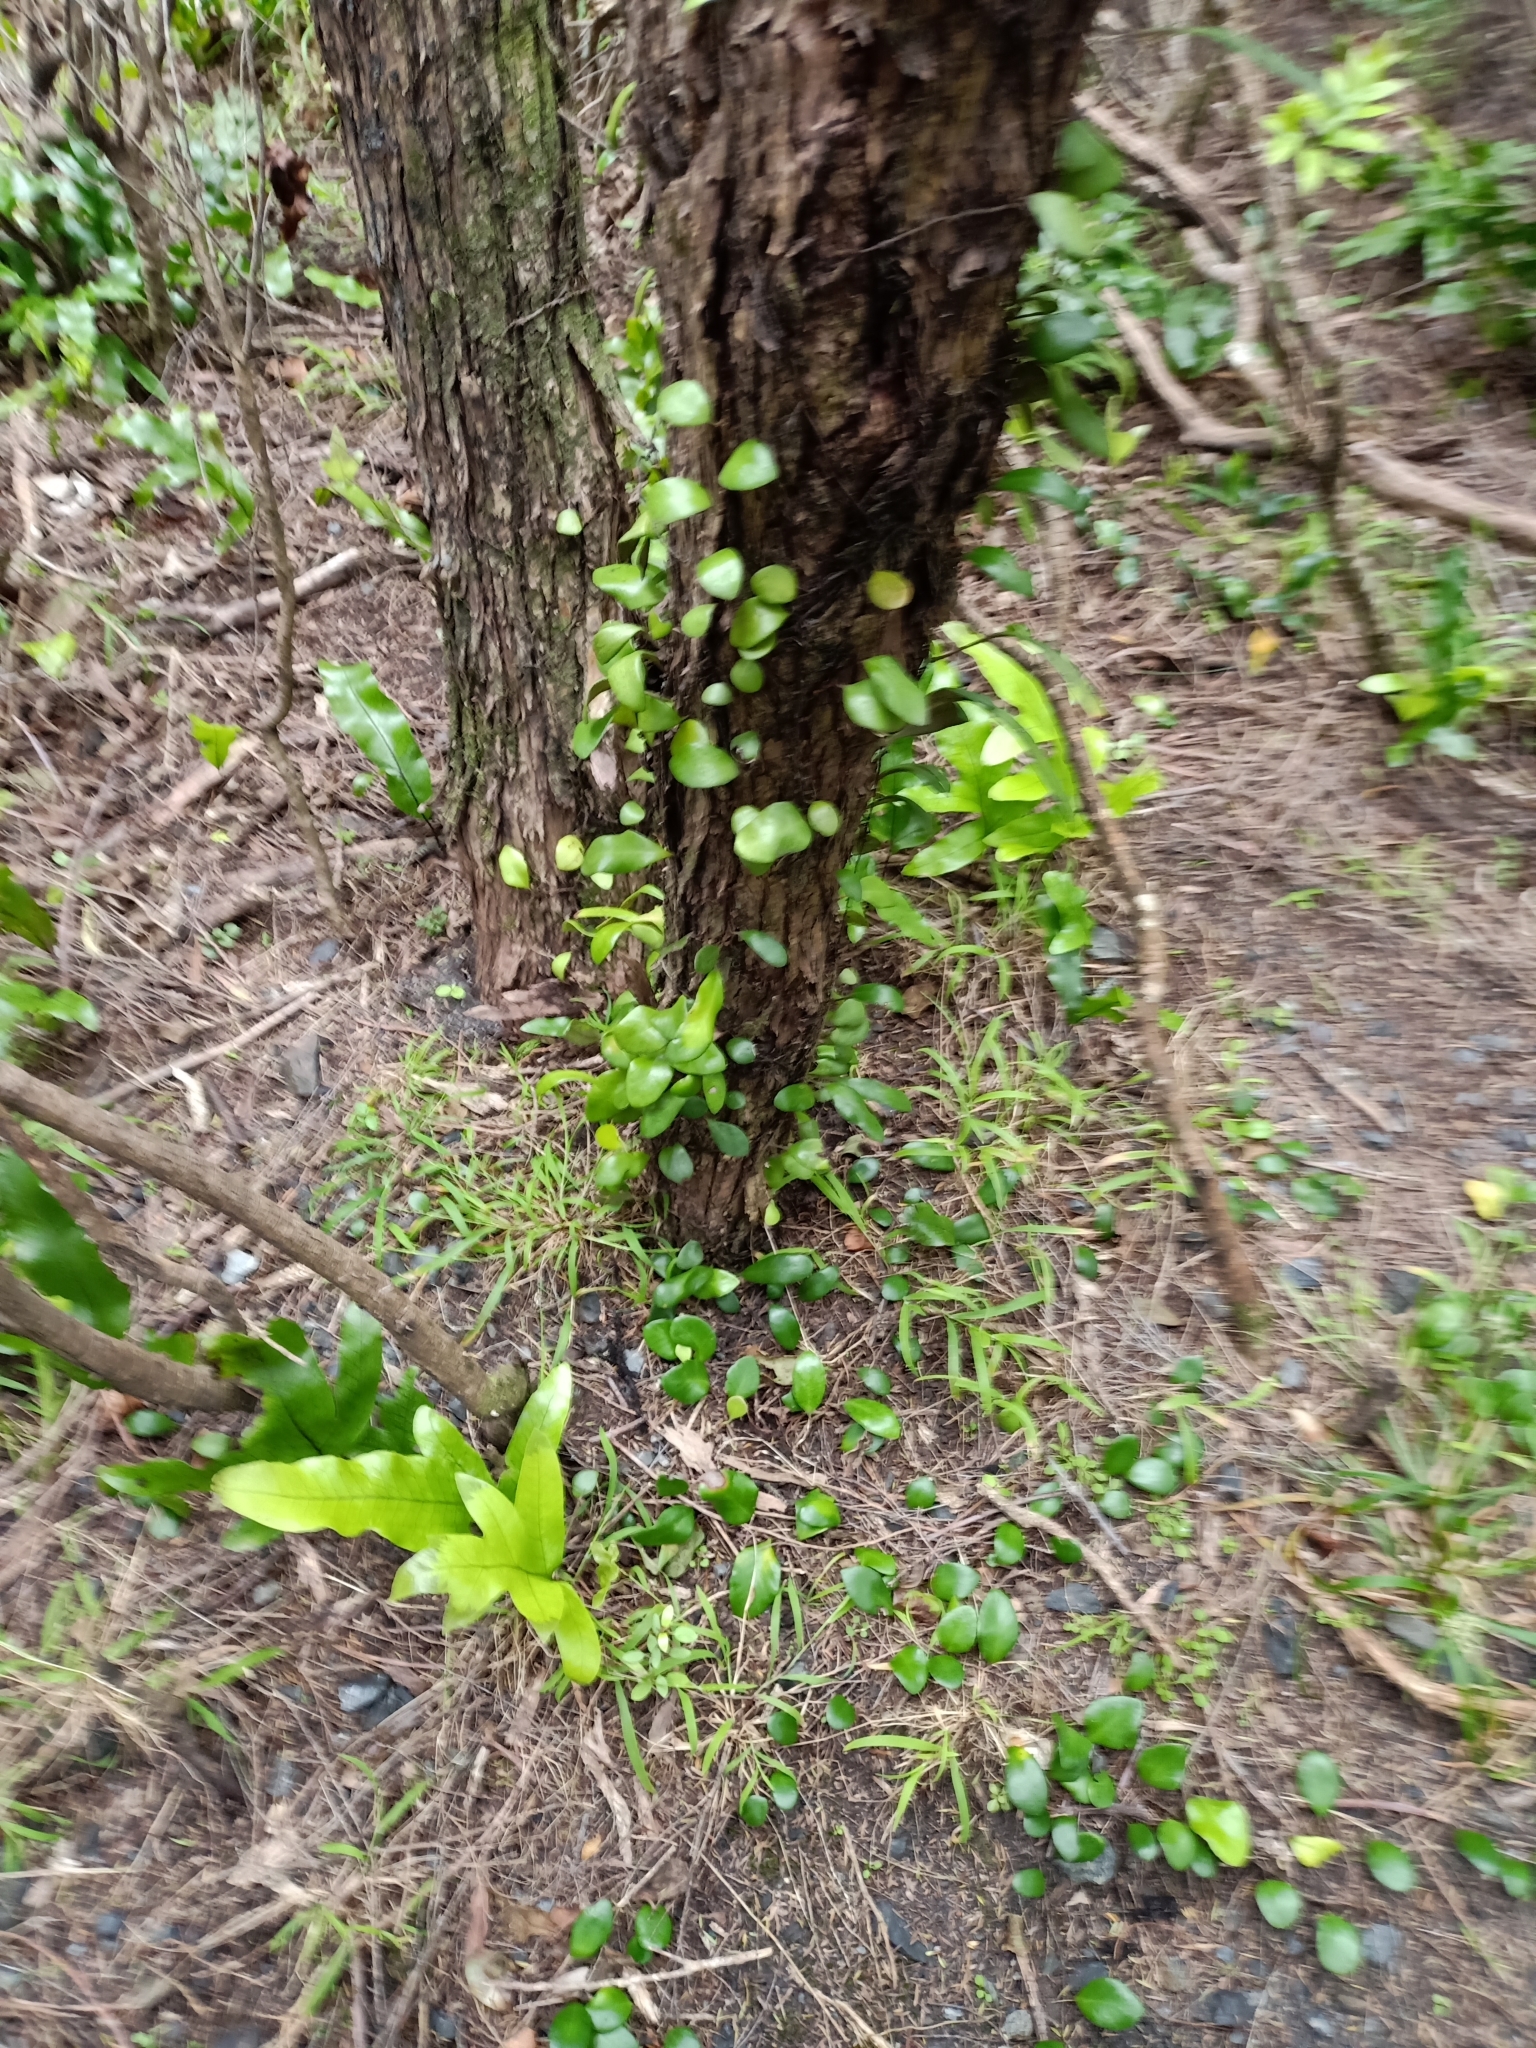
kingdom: Plantae
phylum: Tracheophyta
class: Polypodiopsida
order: Polypodiales
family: Polypodiaceae
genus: Pyrrosia
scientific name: Pyrrosia eleagnifolia
